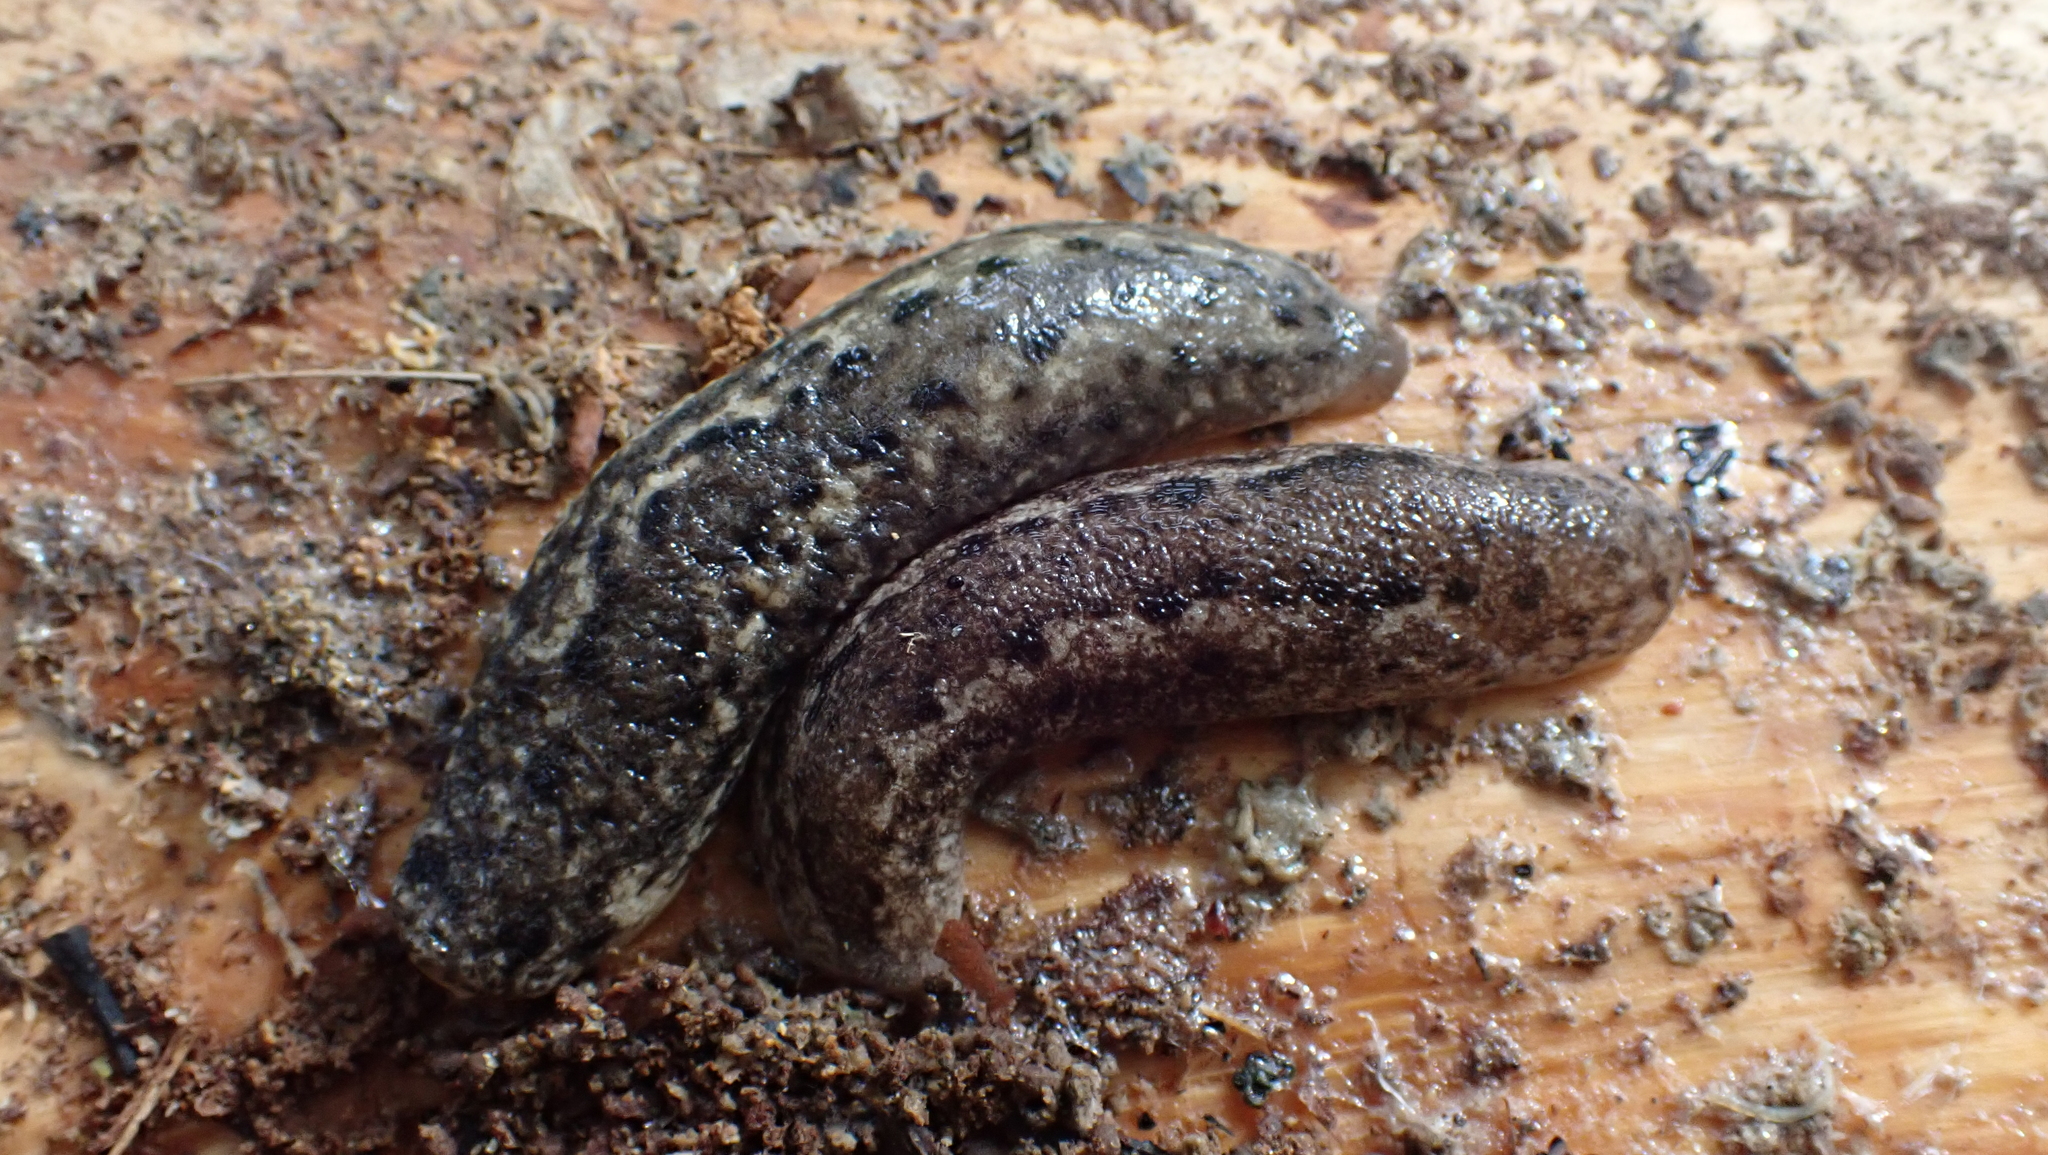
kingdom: Animalia
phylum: Mollusca
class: Gastropoda
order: Stylommatophora
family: Philomycidae
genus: Philomycus
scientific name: Philomycus carolinianus
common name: Carolina mantleslug
